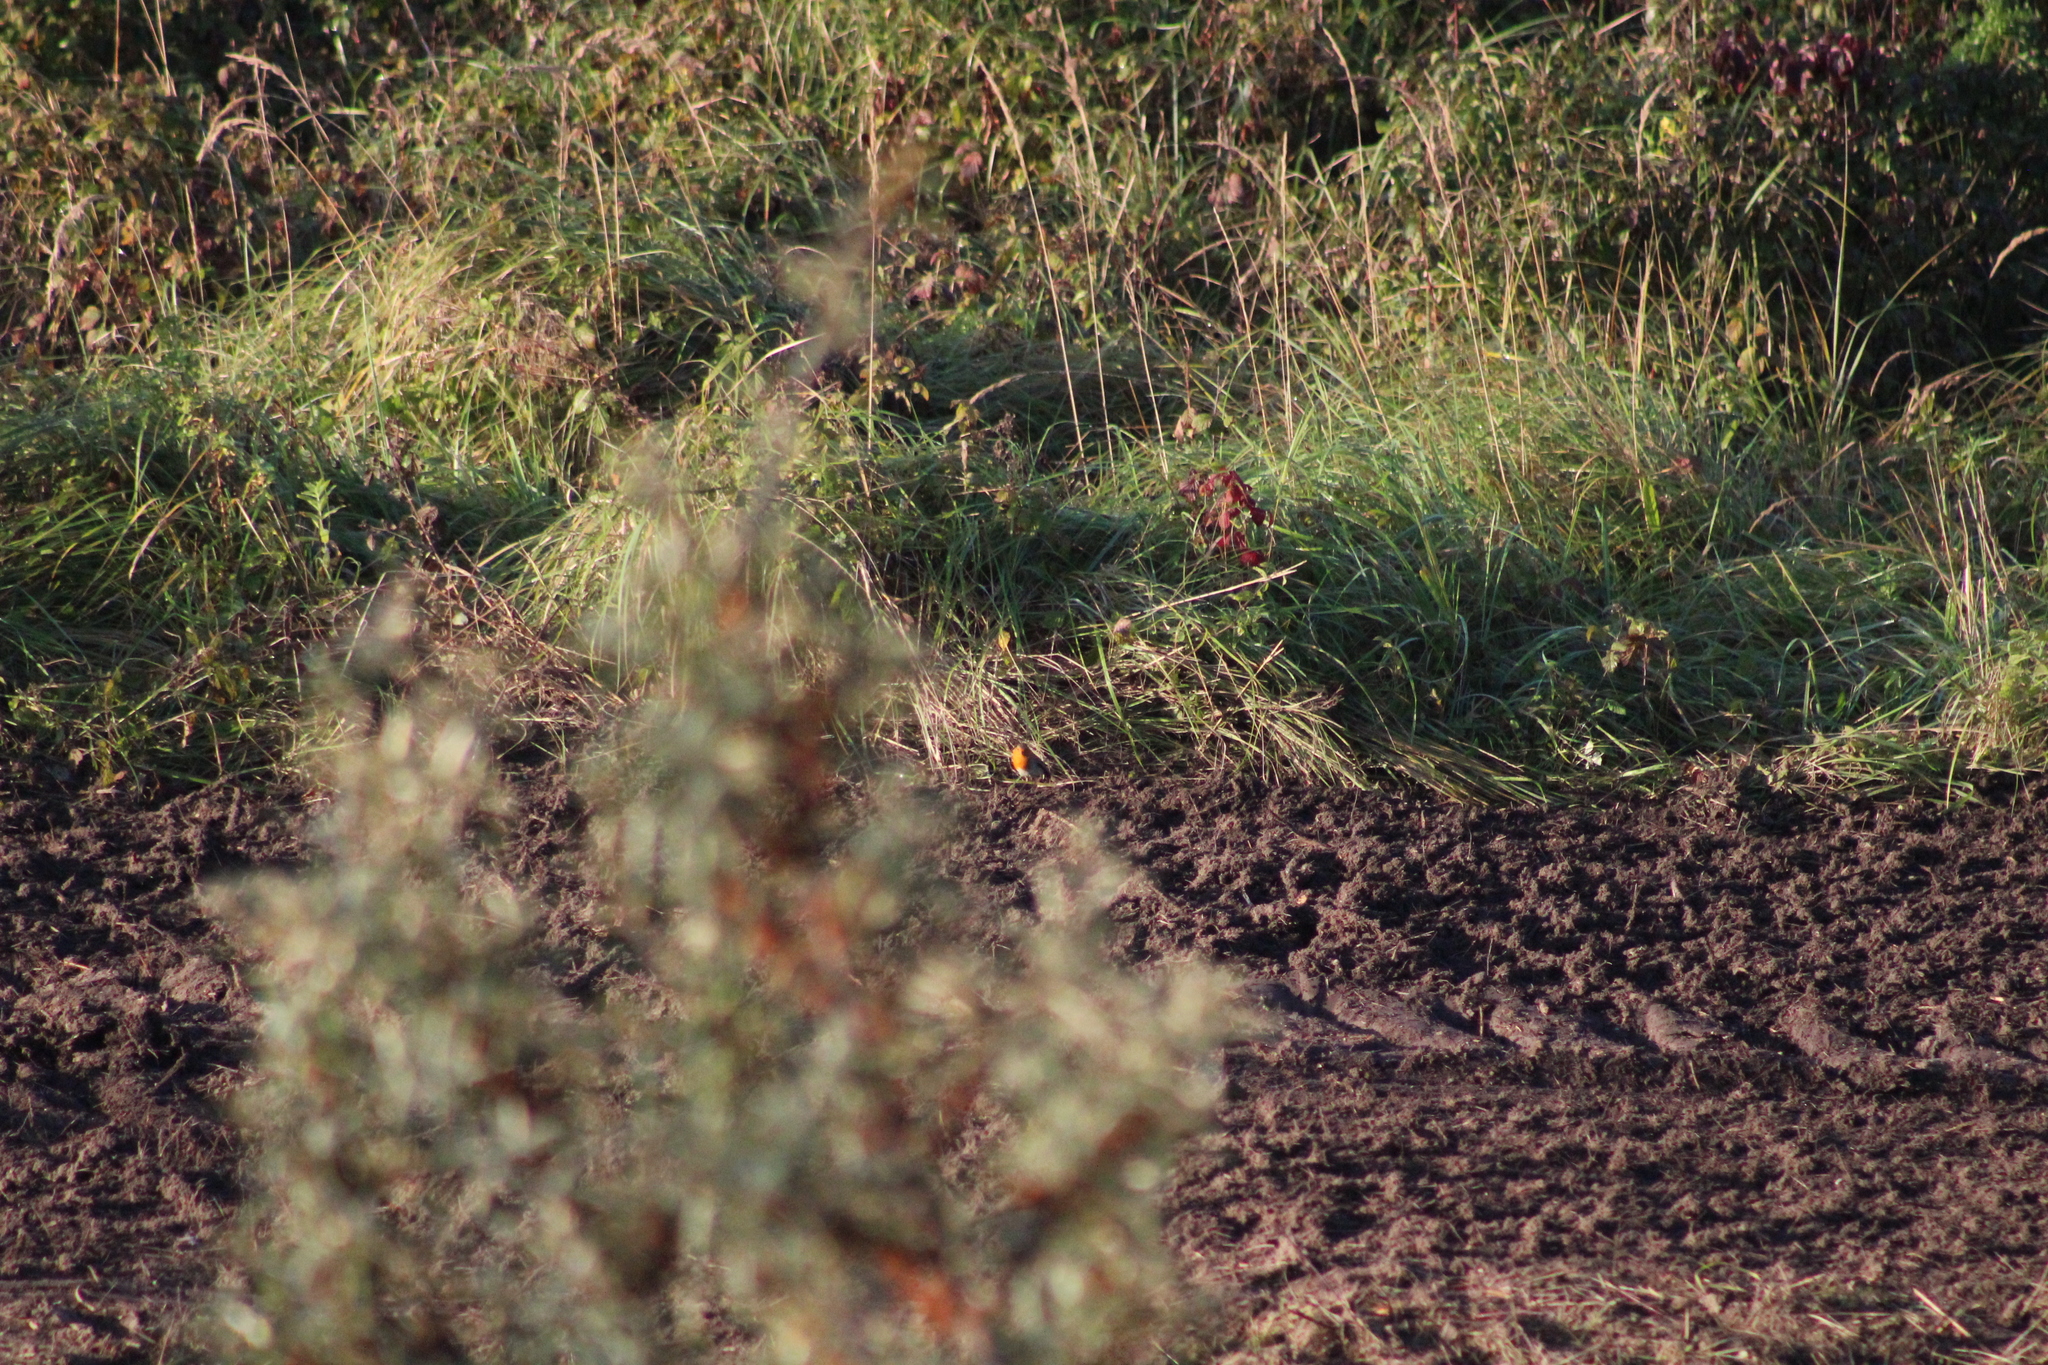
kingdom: Animalia
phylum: Chordata
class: Aves
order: Passeriformes
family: Muscicapidae
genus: Erithacus
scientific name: Erithacus rubecula
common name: European robin
